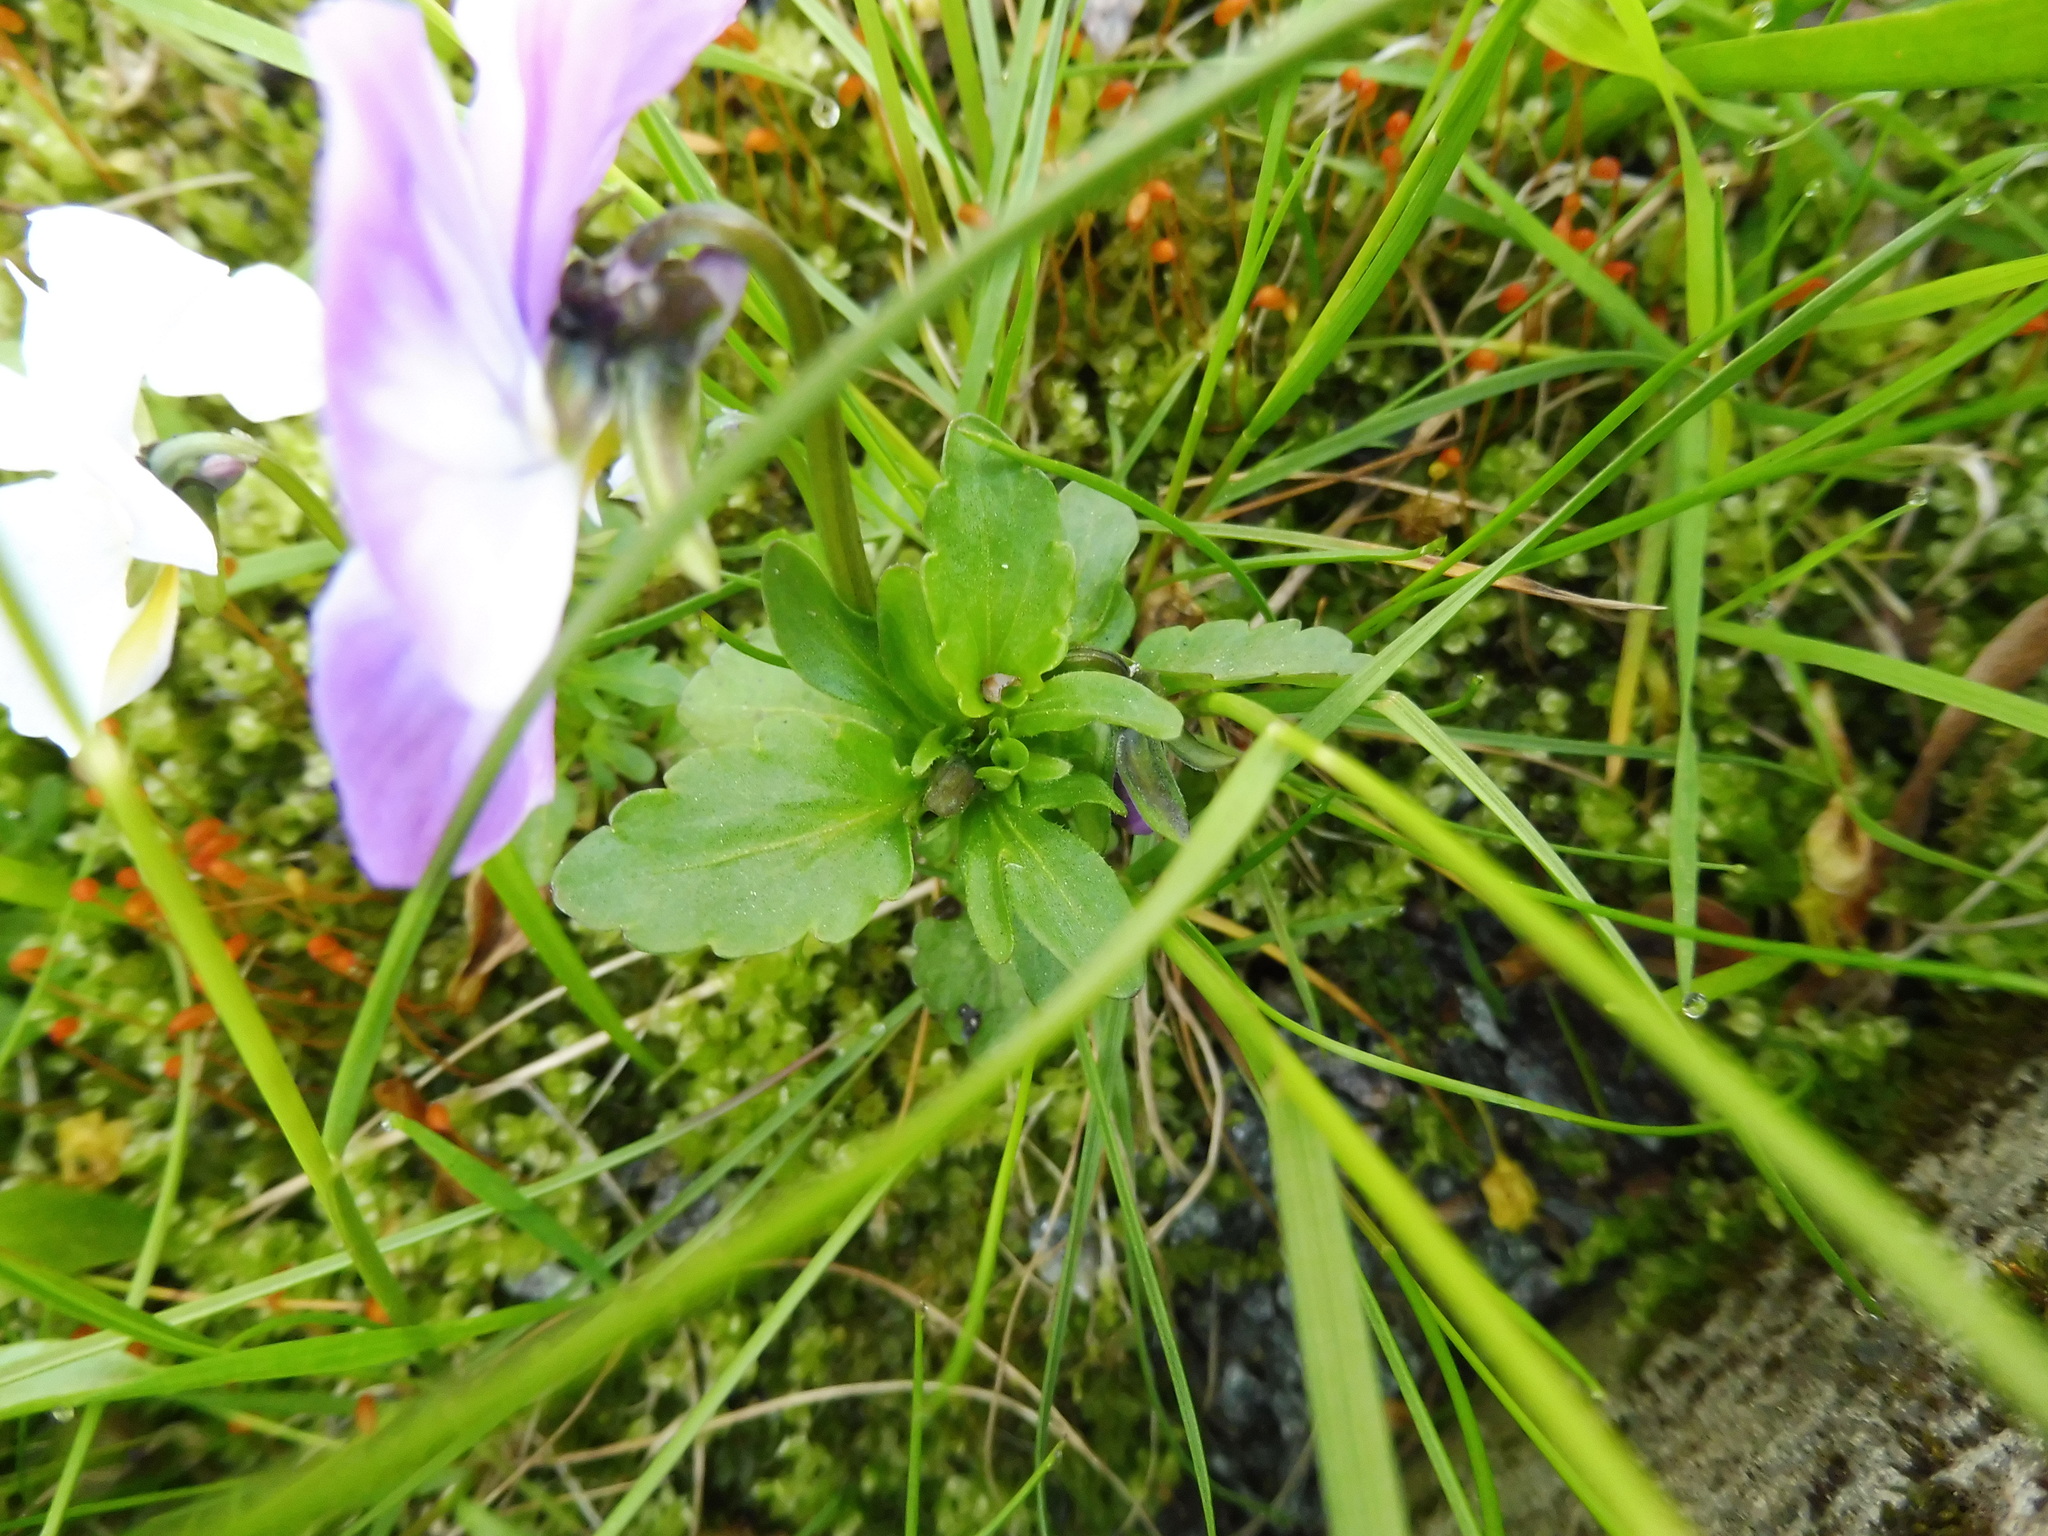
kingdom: Plantae
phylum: Tracheophyta
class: Magnoliopsida
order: Malpighiales
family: Violaceae
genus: Viola
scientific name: Viola wittrockiana
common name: Garden pansy
